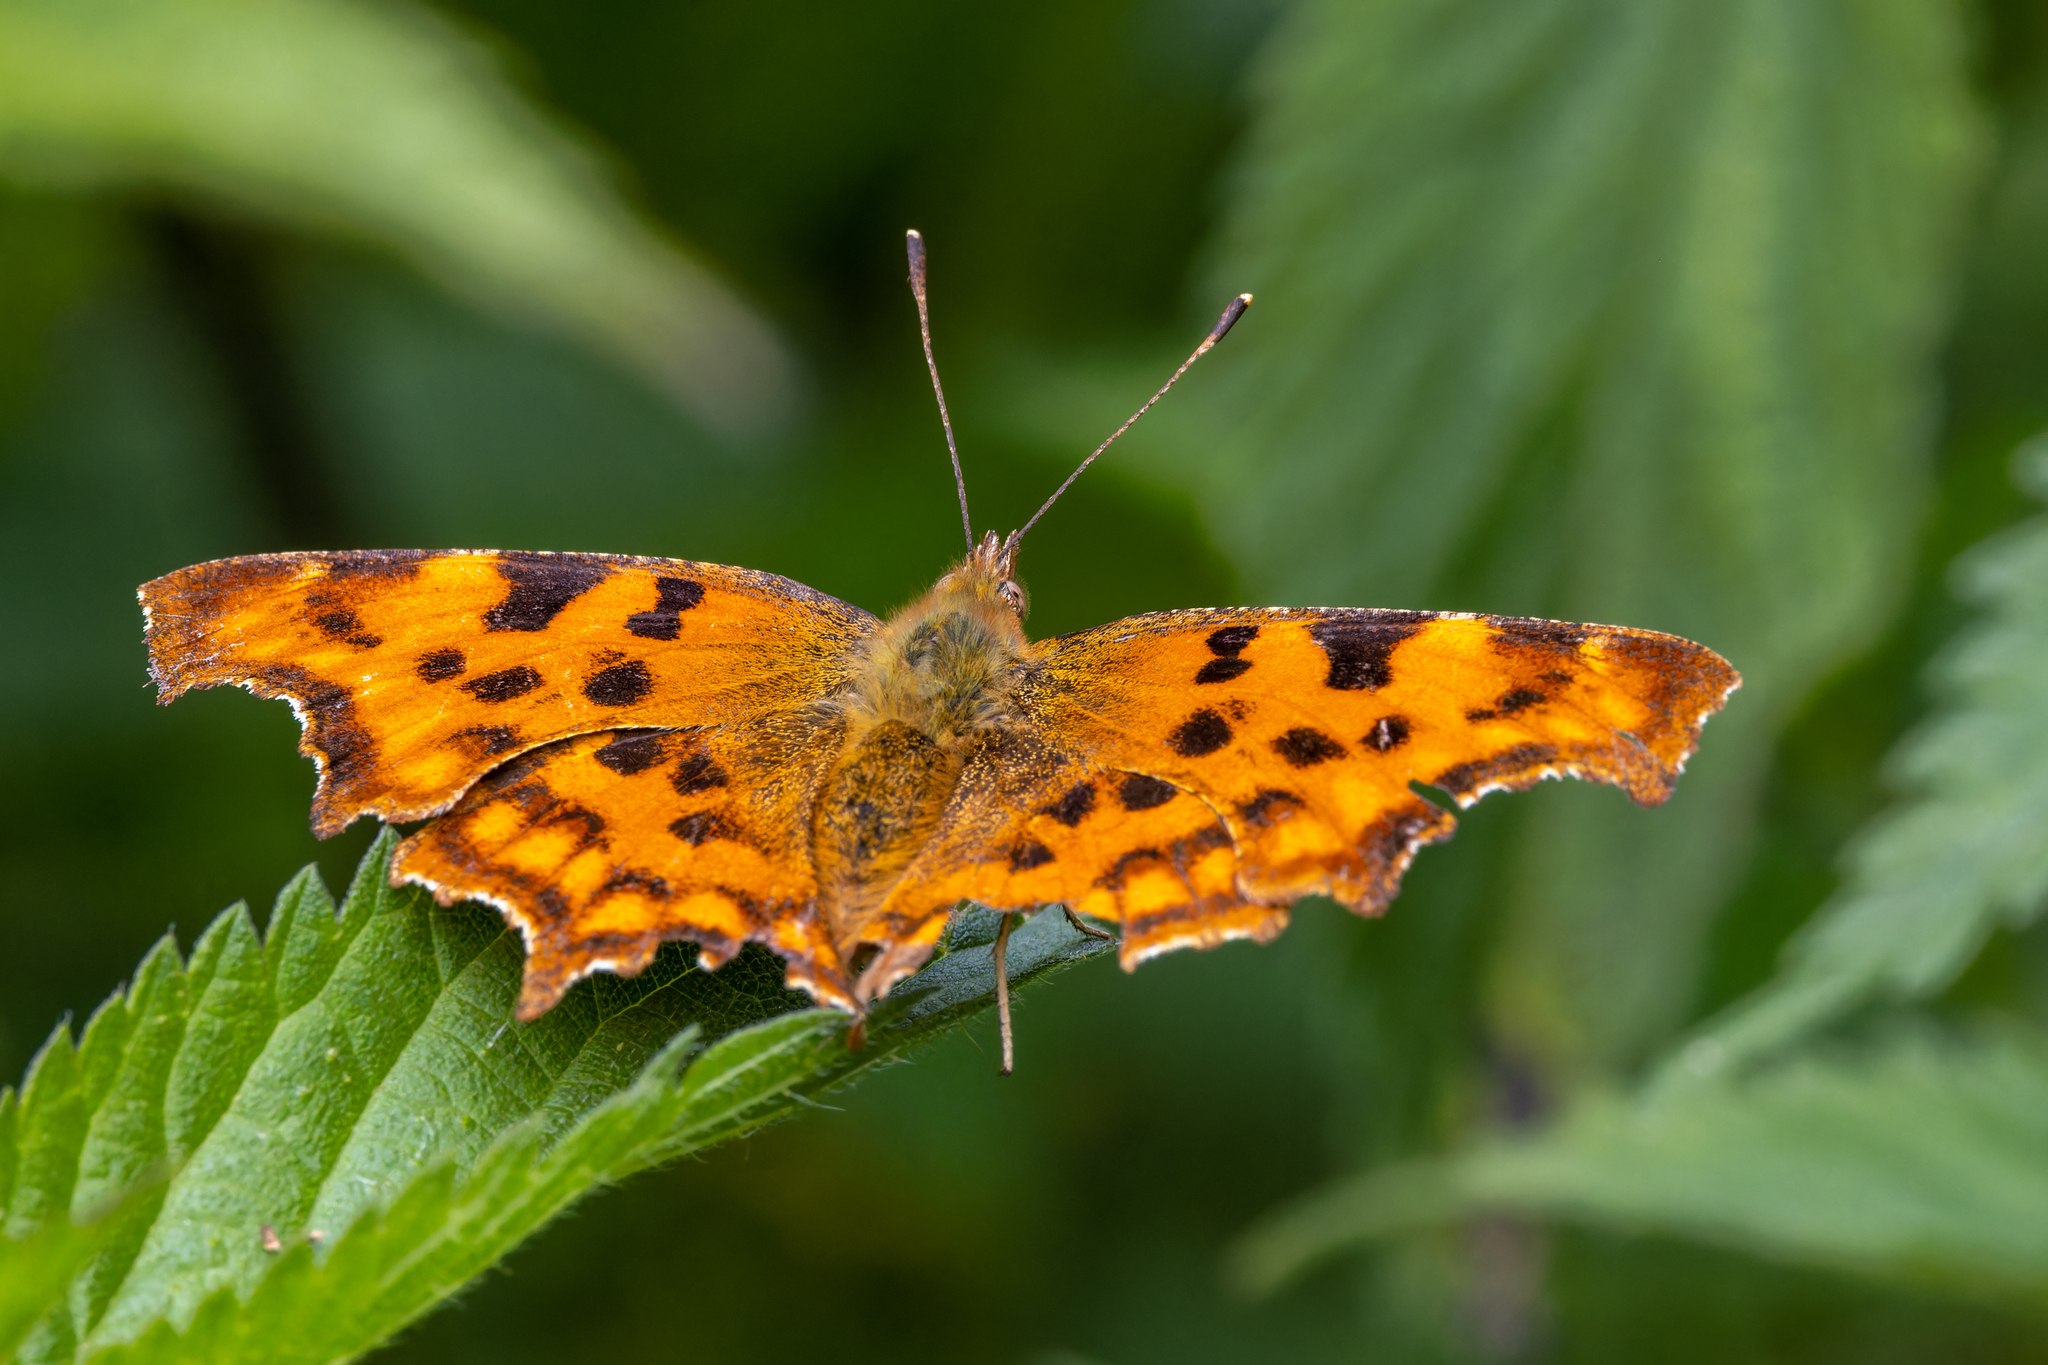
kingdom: Animalia
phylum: Arthropoda
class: Insecta
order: Lepidoptera
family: Nymphalidae
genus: Polygonia
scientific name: Polygonia c-album
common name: Comma
